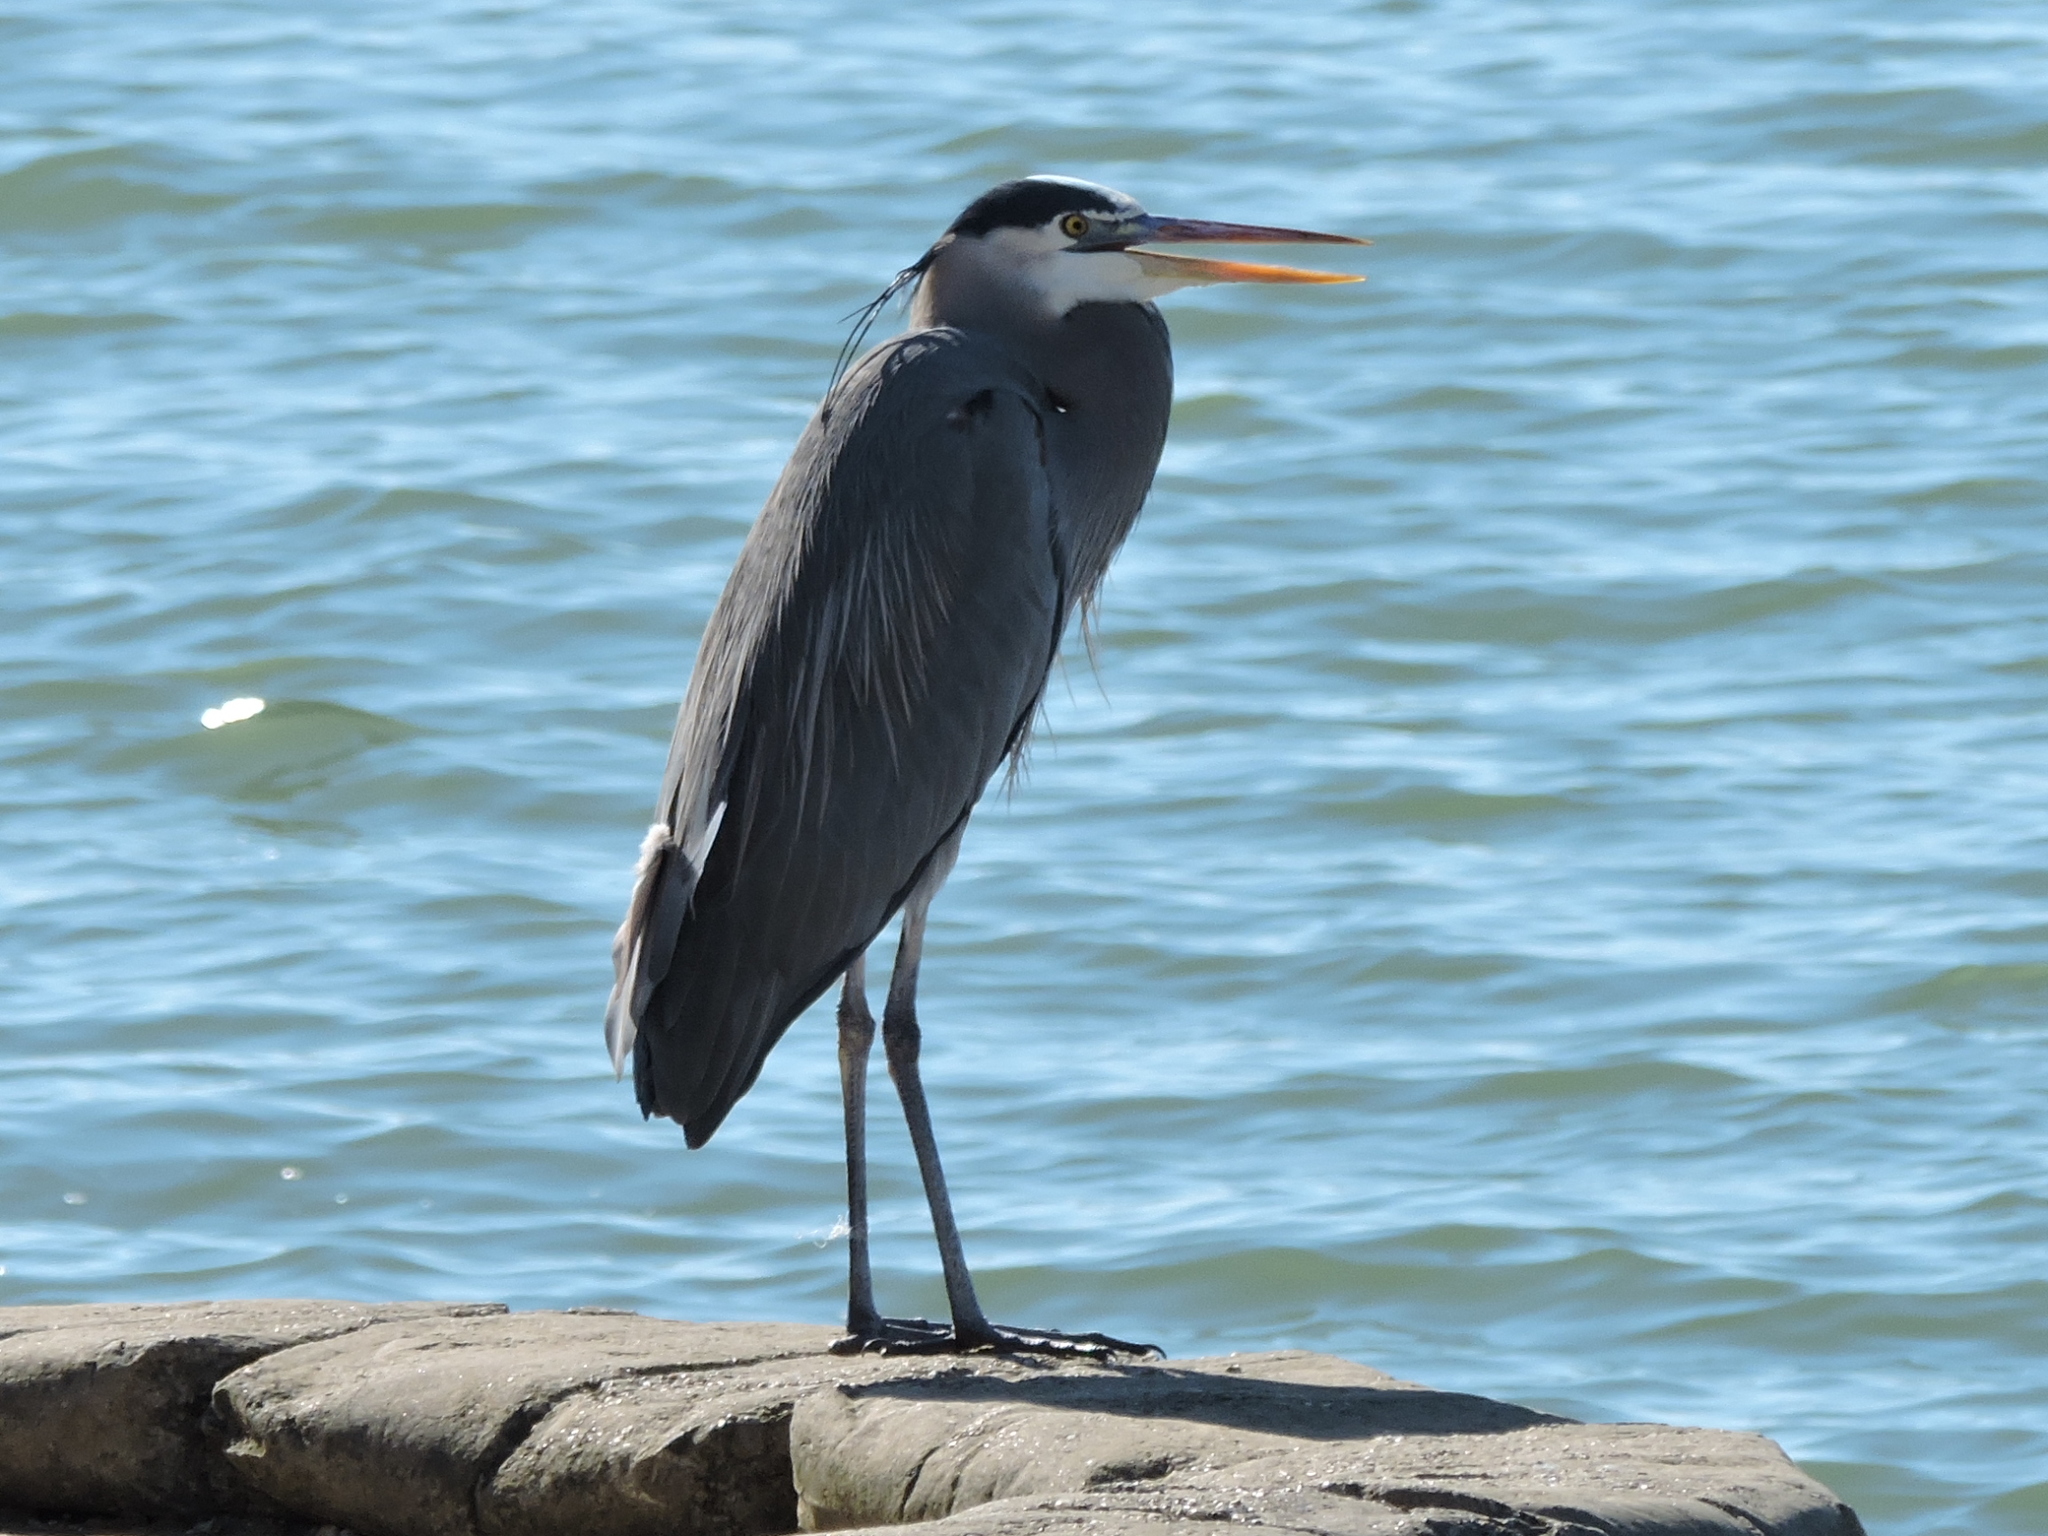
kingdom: Animalia
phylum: Chordata
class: Aves
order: Pelecaniformes
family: Ardeidae
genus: Ardea
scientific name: Ardea herodias
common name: Great blue heron
